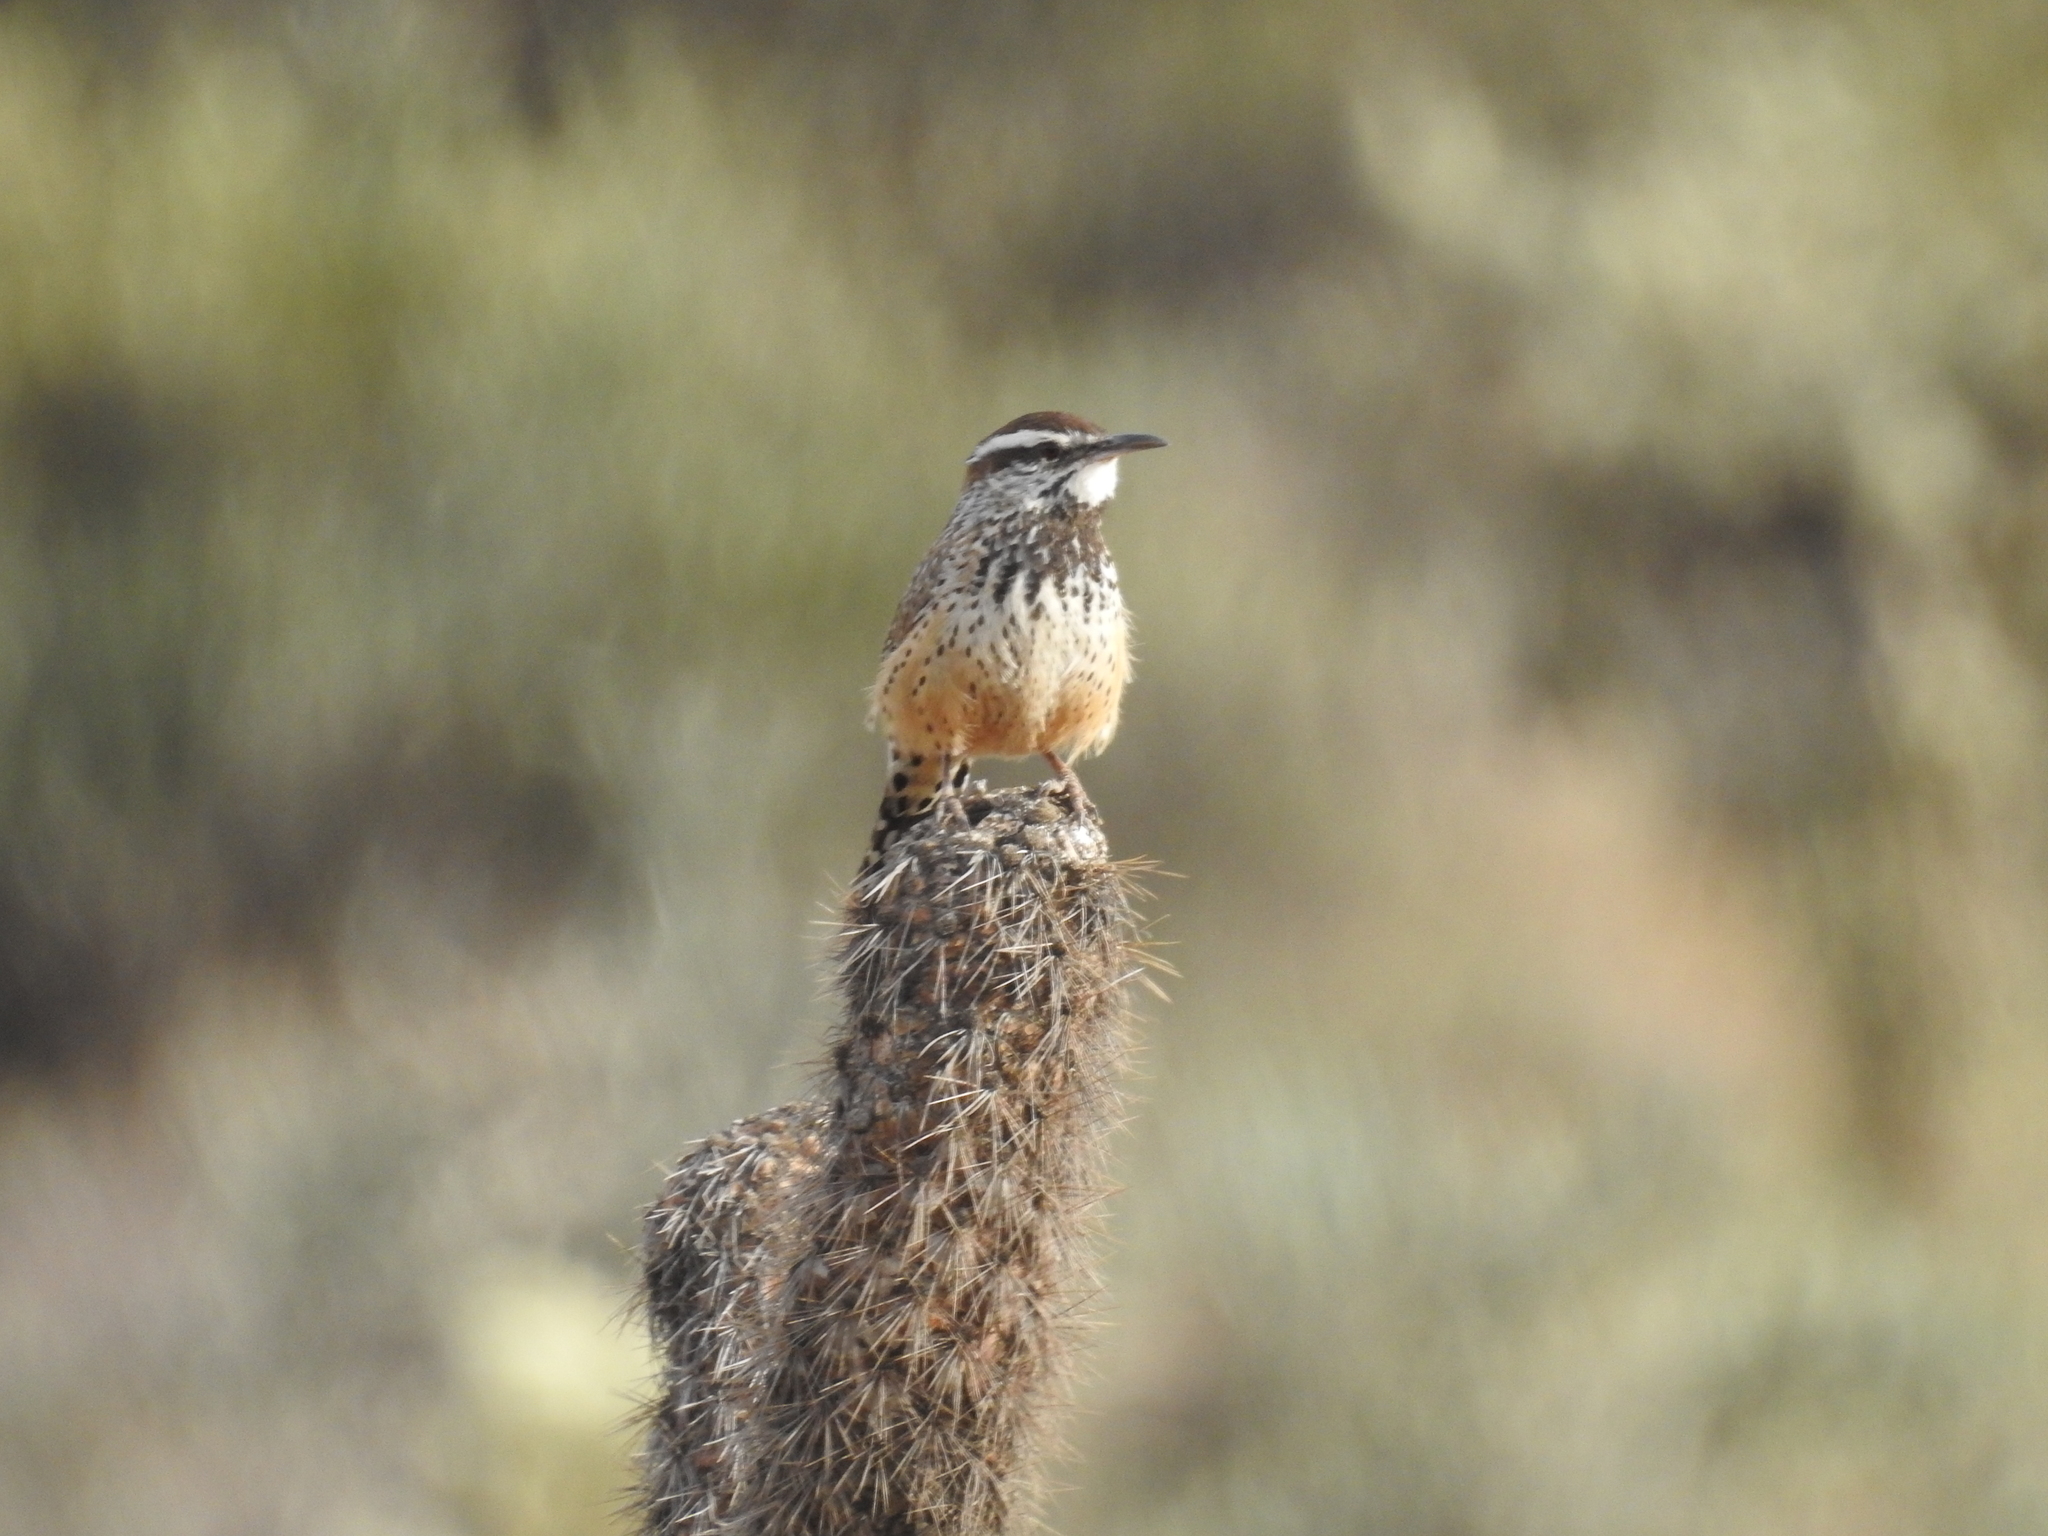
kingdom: Animalia
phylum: Chordata
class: Aves
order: Passeriformes
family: Troglodytidae
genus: Campylorhynchus
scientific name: Campylorhynchus brunneicapillus
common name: Cactus wren
